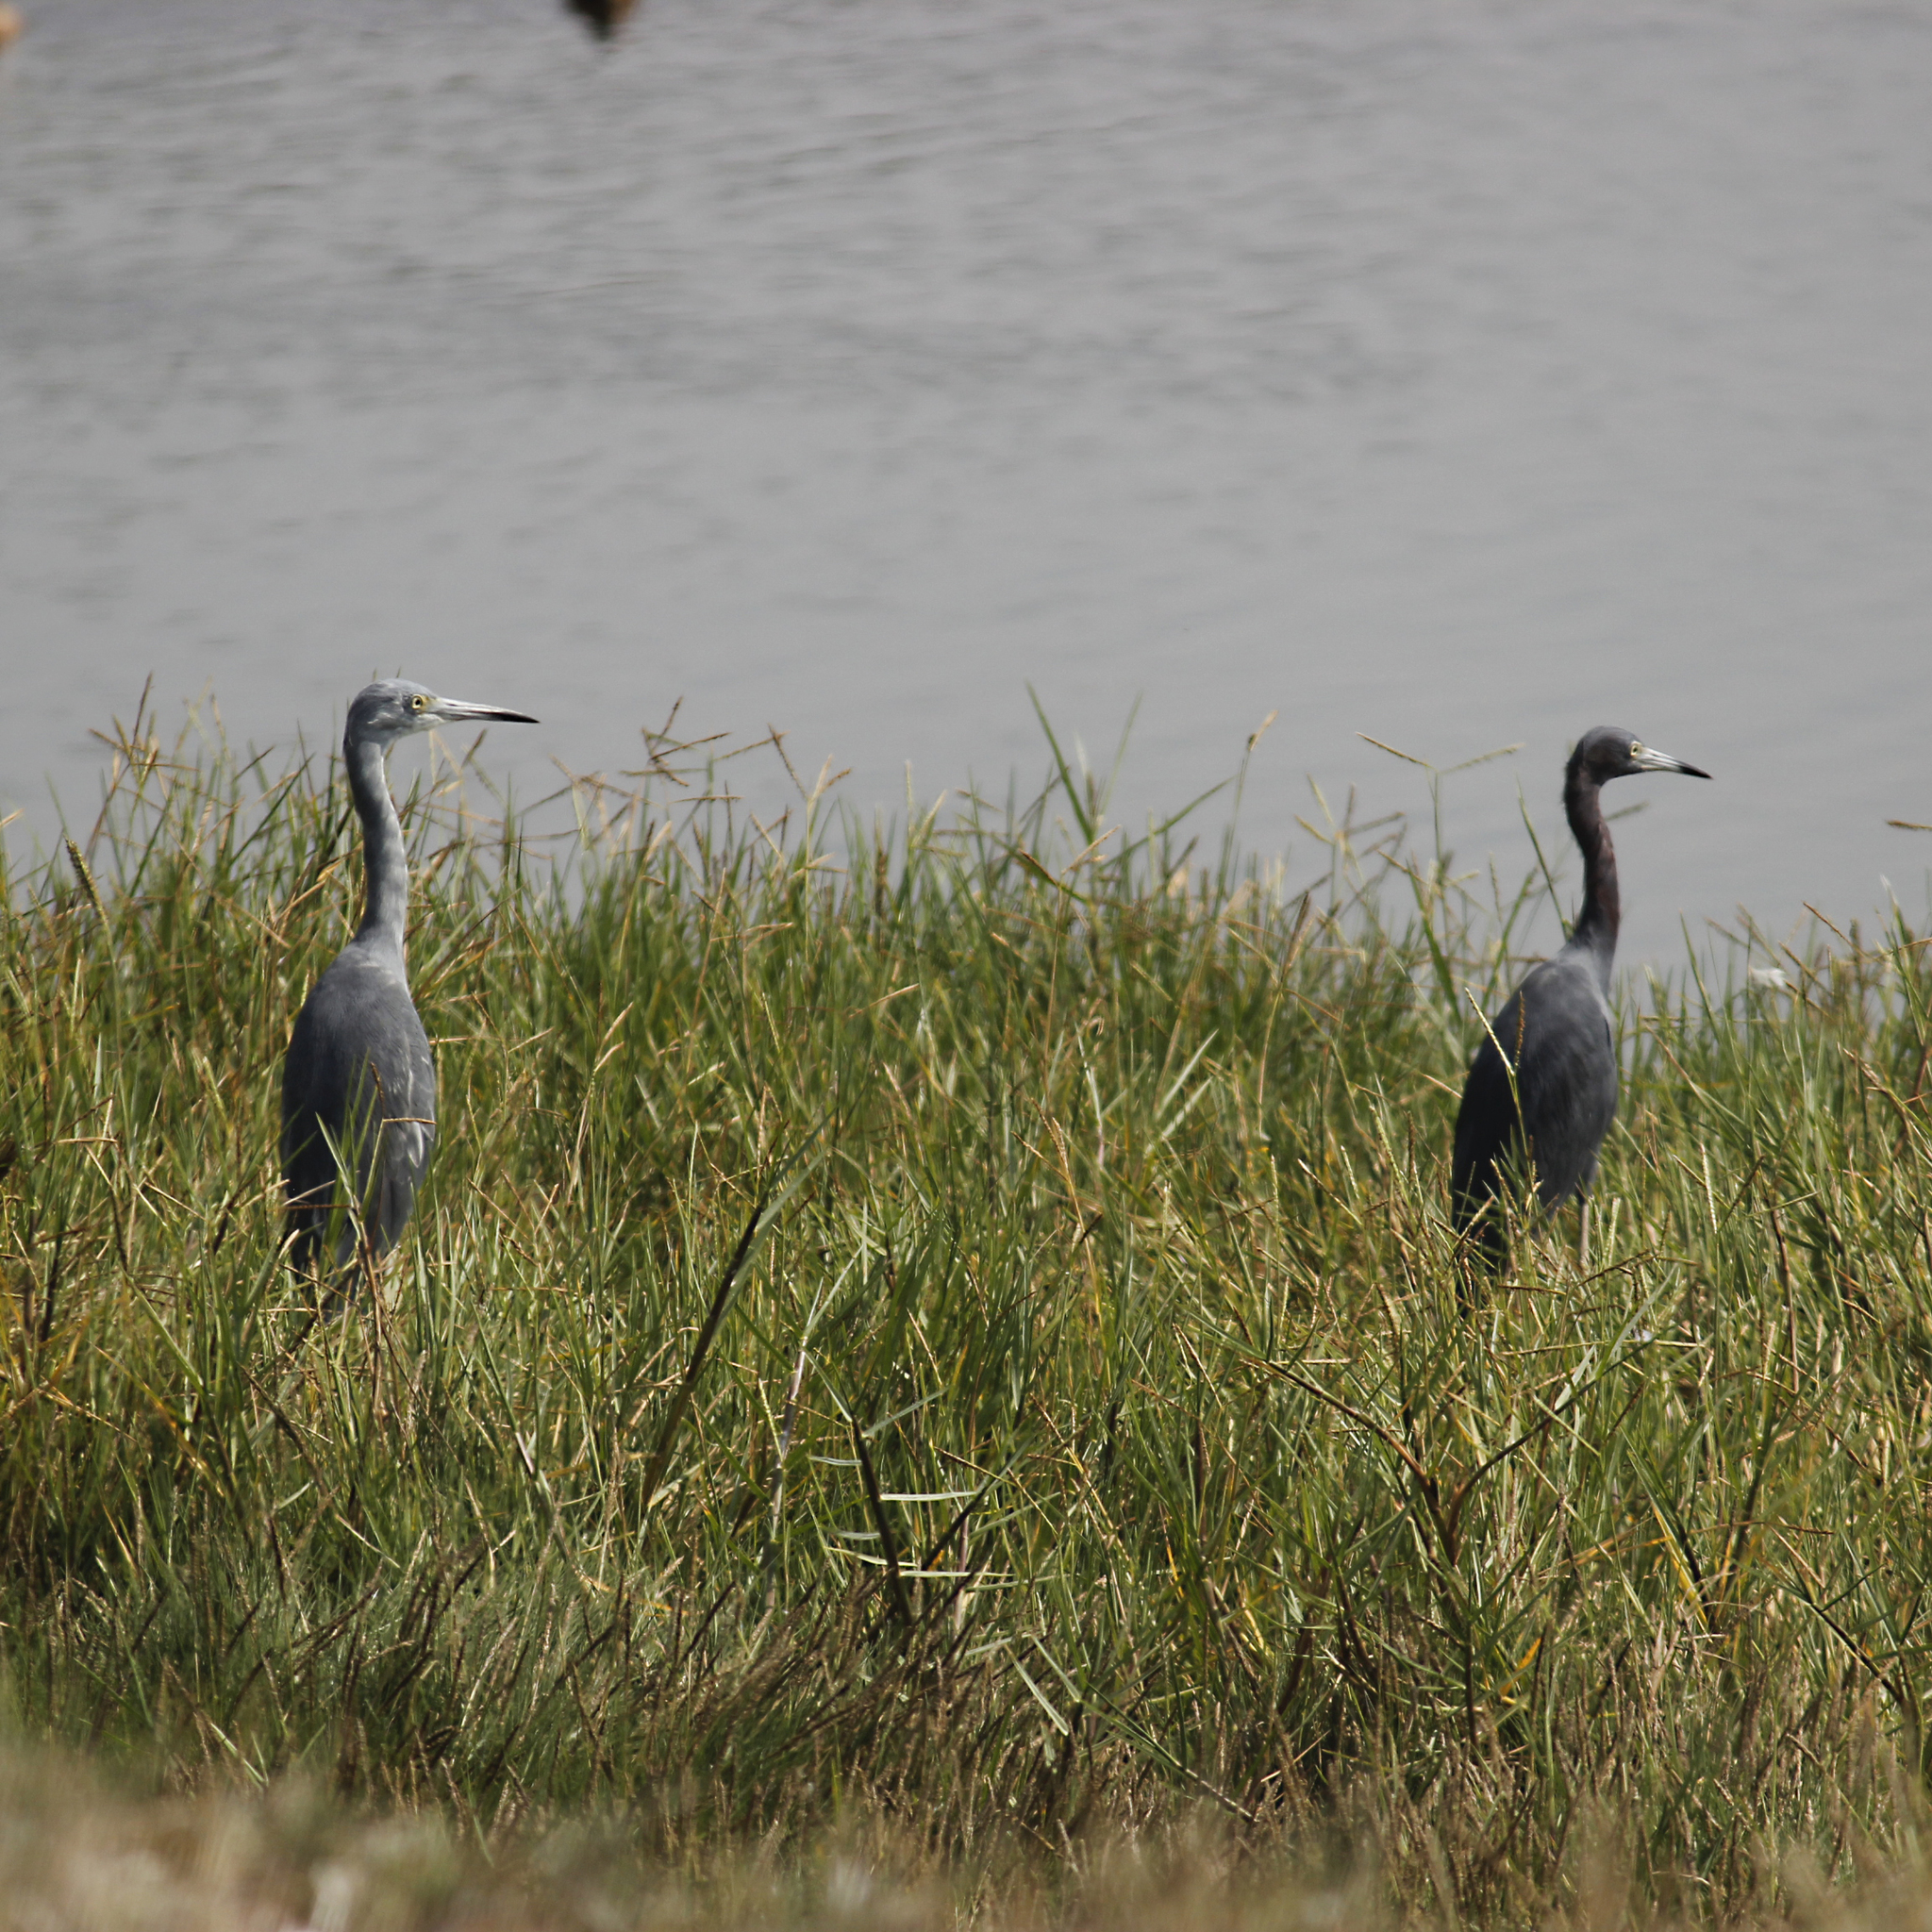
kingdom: Animalia
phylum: Chordata
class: Aves
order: Pelecaniformes
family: Ardeidae
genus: Egretta
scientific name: Egretta caerulea
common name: Little blue heron
